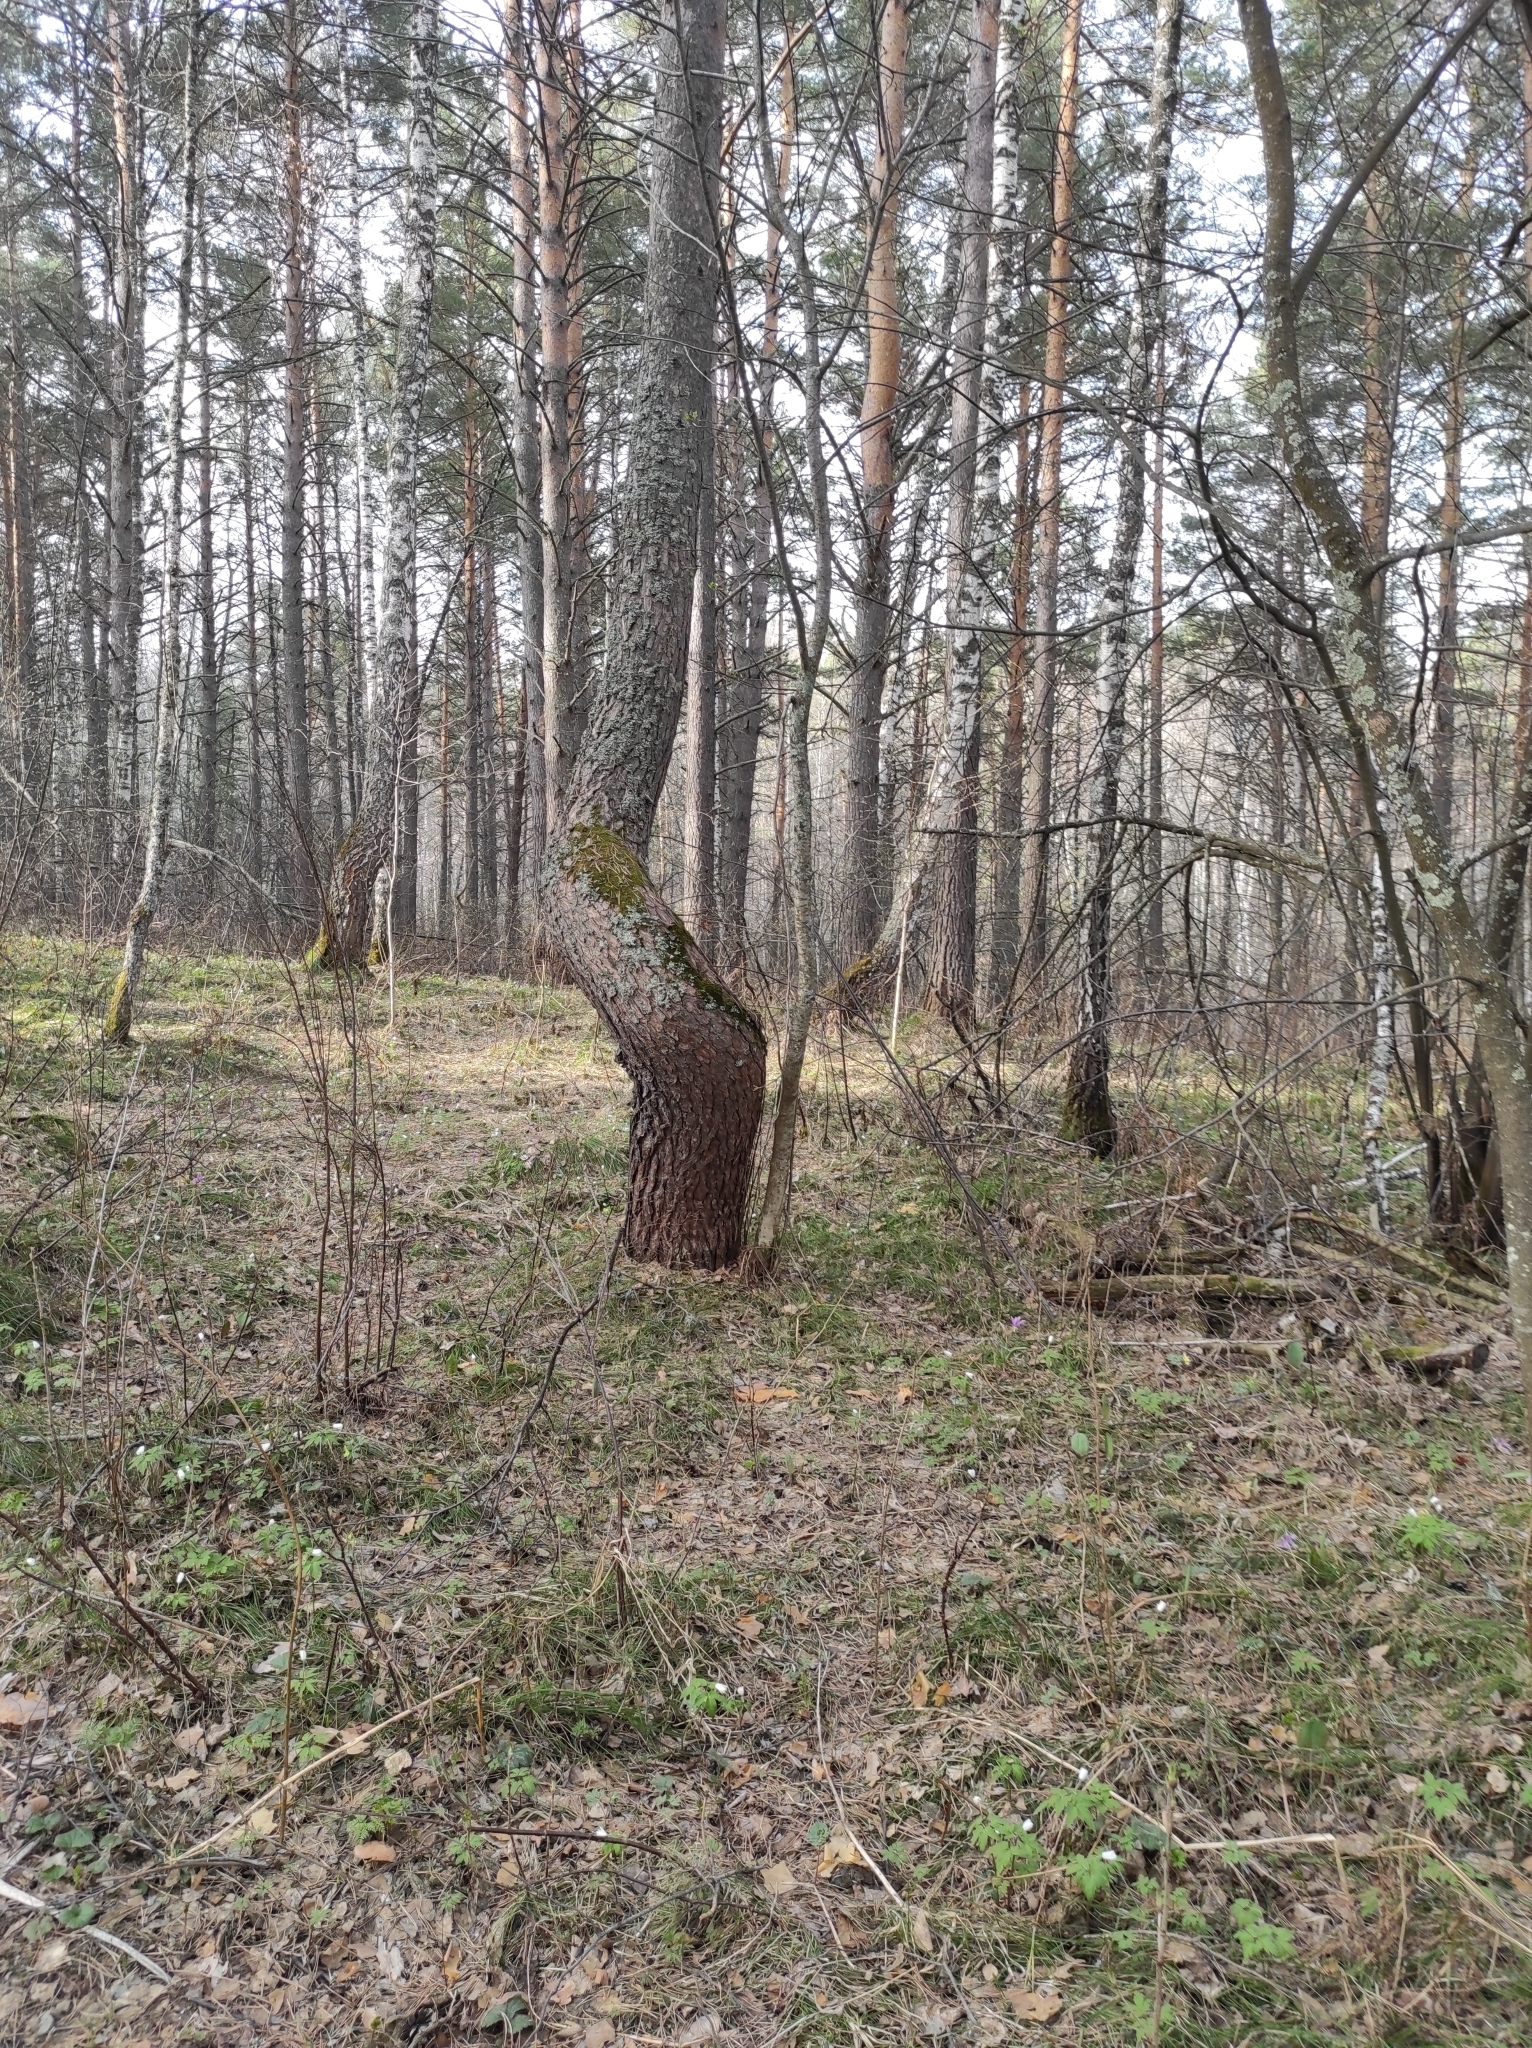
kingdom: Plantae
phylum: Tracheophyta
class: Magnoliopsida
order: Ranunculales
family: Ranunculaceae
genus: Anemone
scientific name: Anemone altaica
